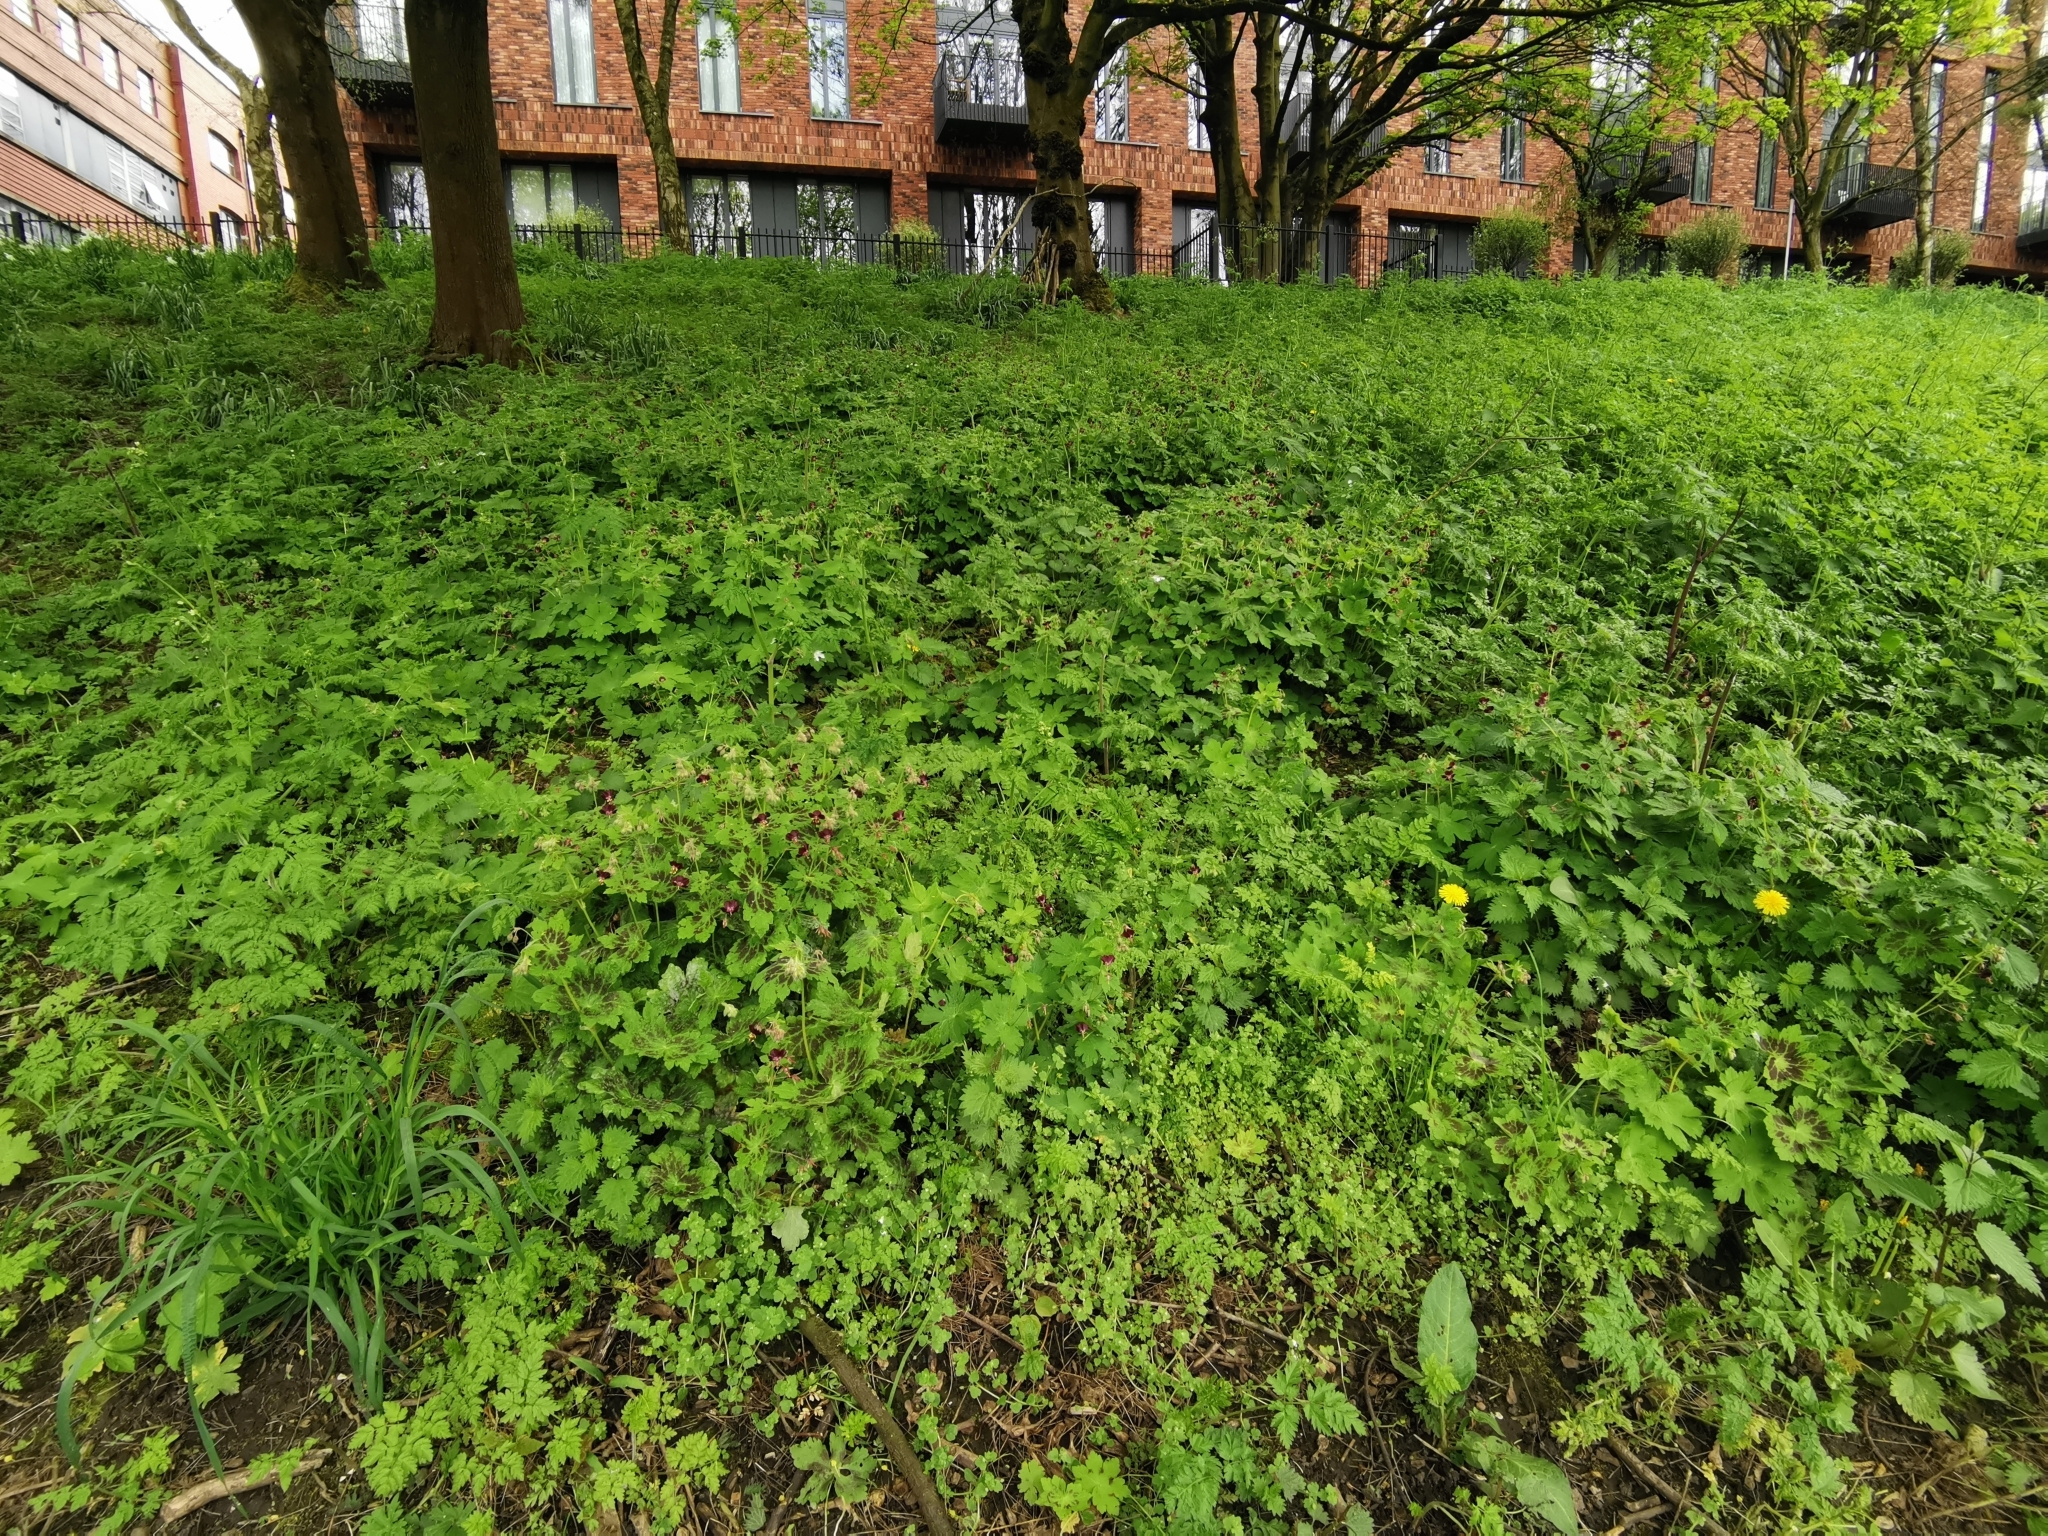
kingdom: Plantae
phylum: Tracheophyta
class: Magnoliopsida
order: Geraniales
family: Geraniaceae
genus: Geranium
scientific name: Geranium phaeum
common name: Dusky crane's-bill
